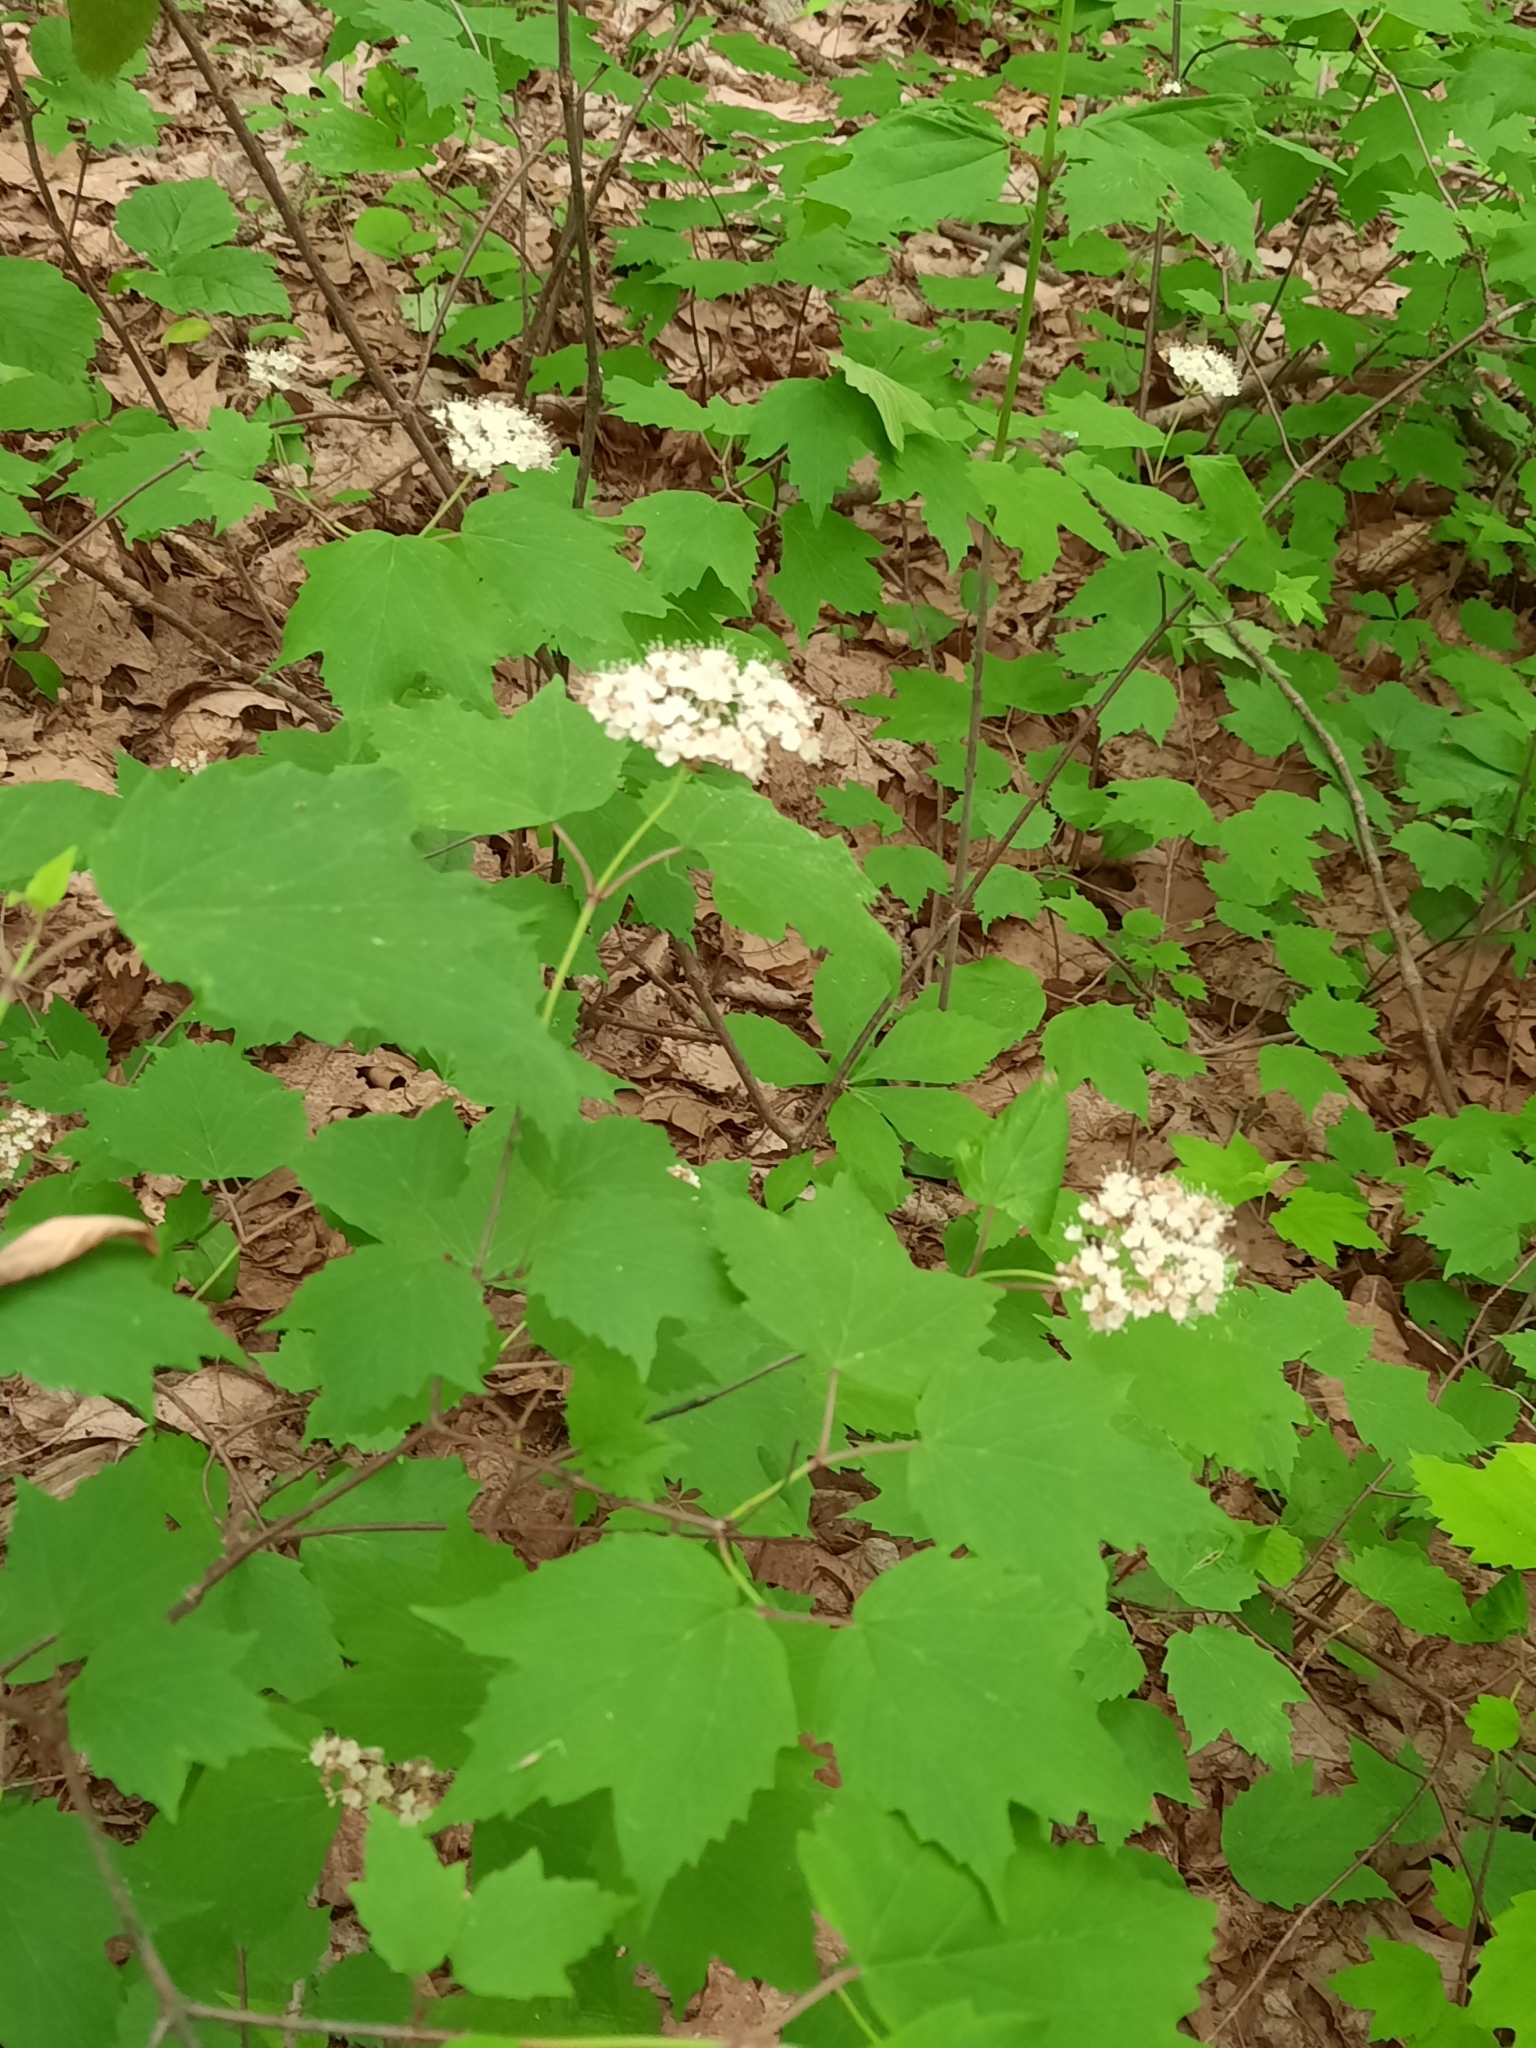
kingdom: Plantae
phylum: Tracheophyta
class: Magnoliopsida
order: Dipsacales
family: Viburnaceae
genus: Viburnum
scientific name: Viburnum acerifolium
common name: Dockmackie
